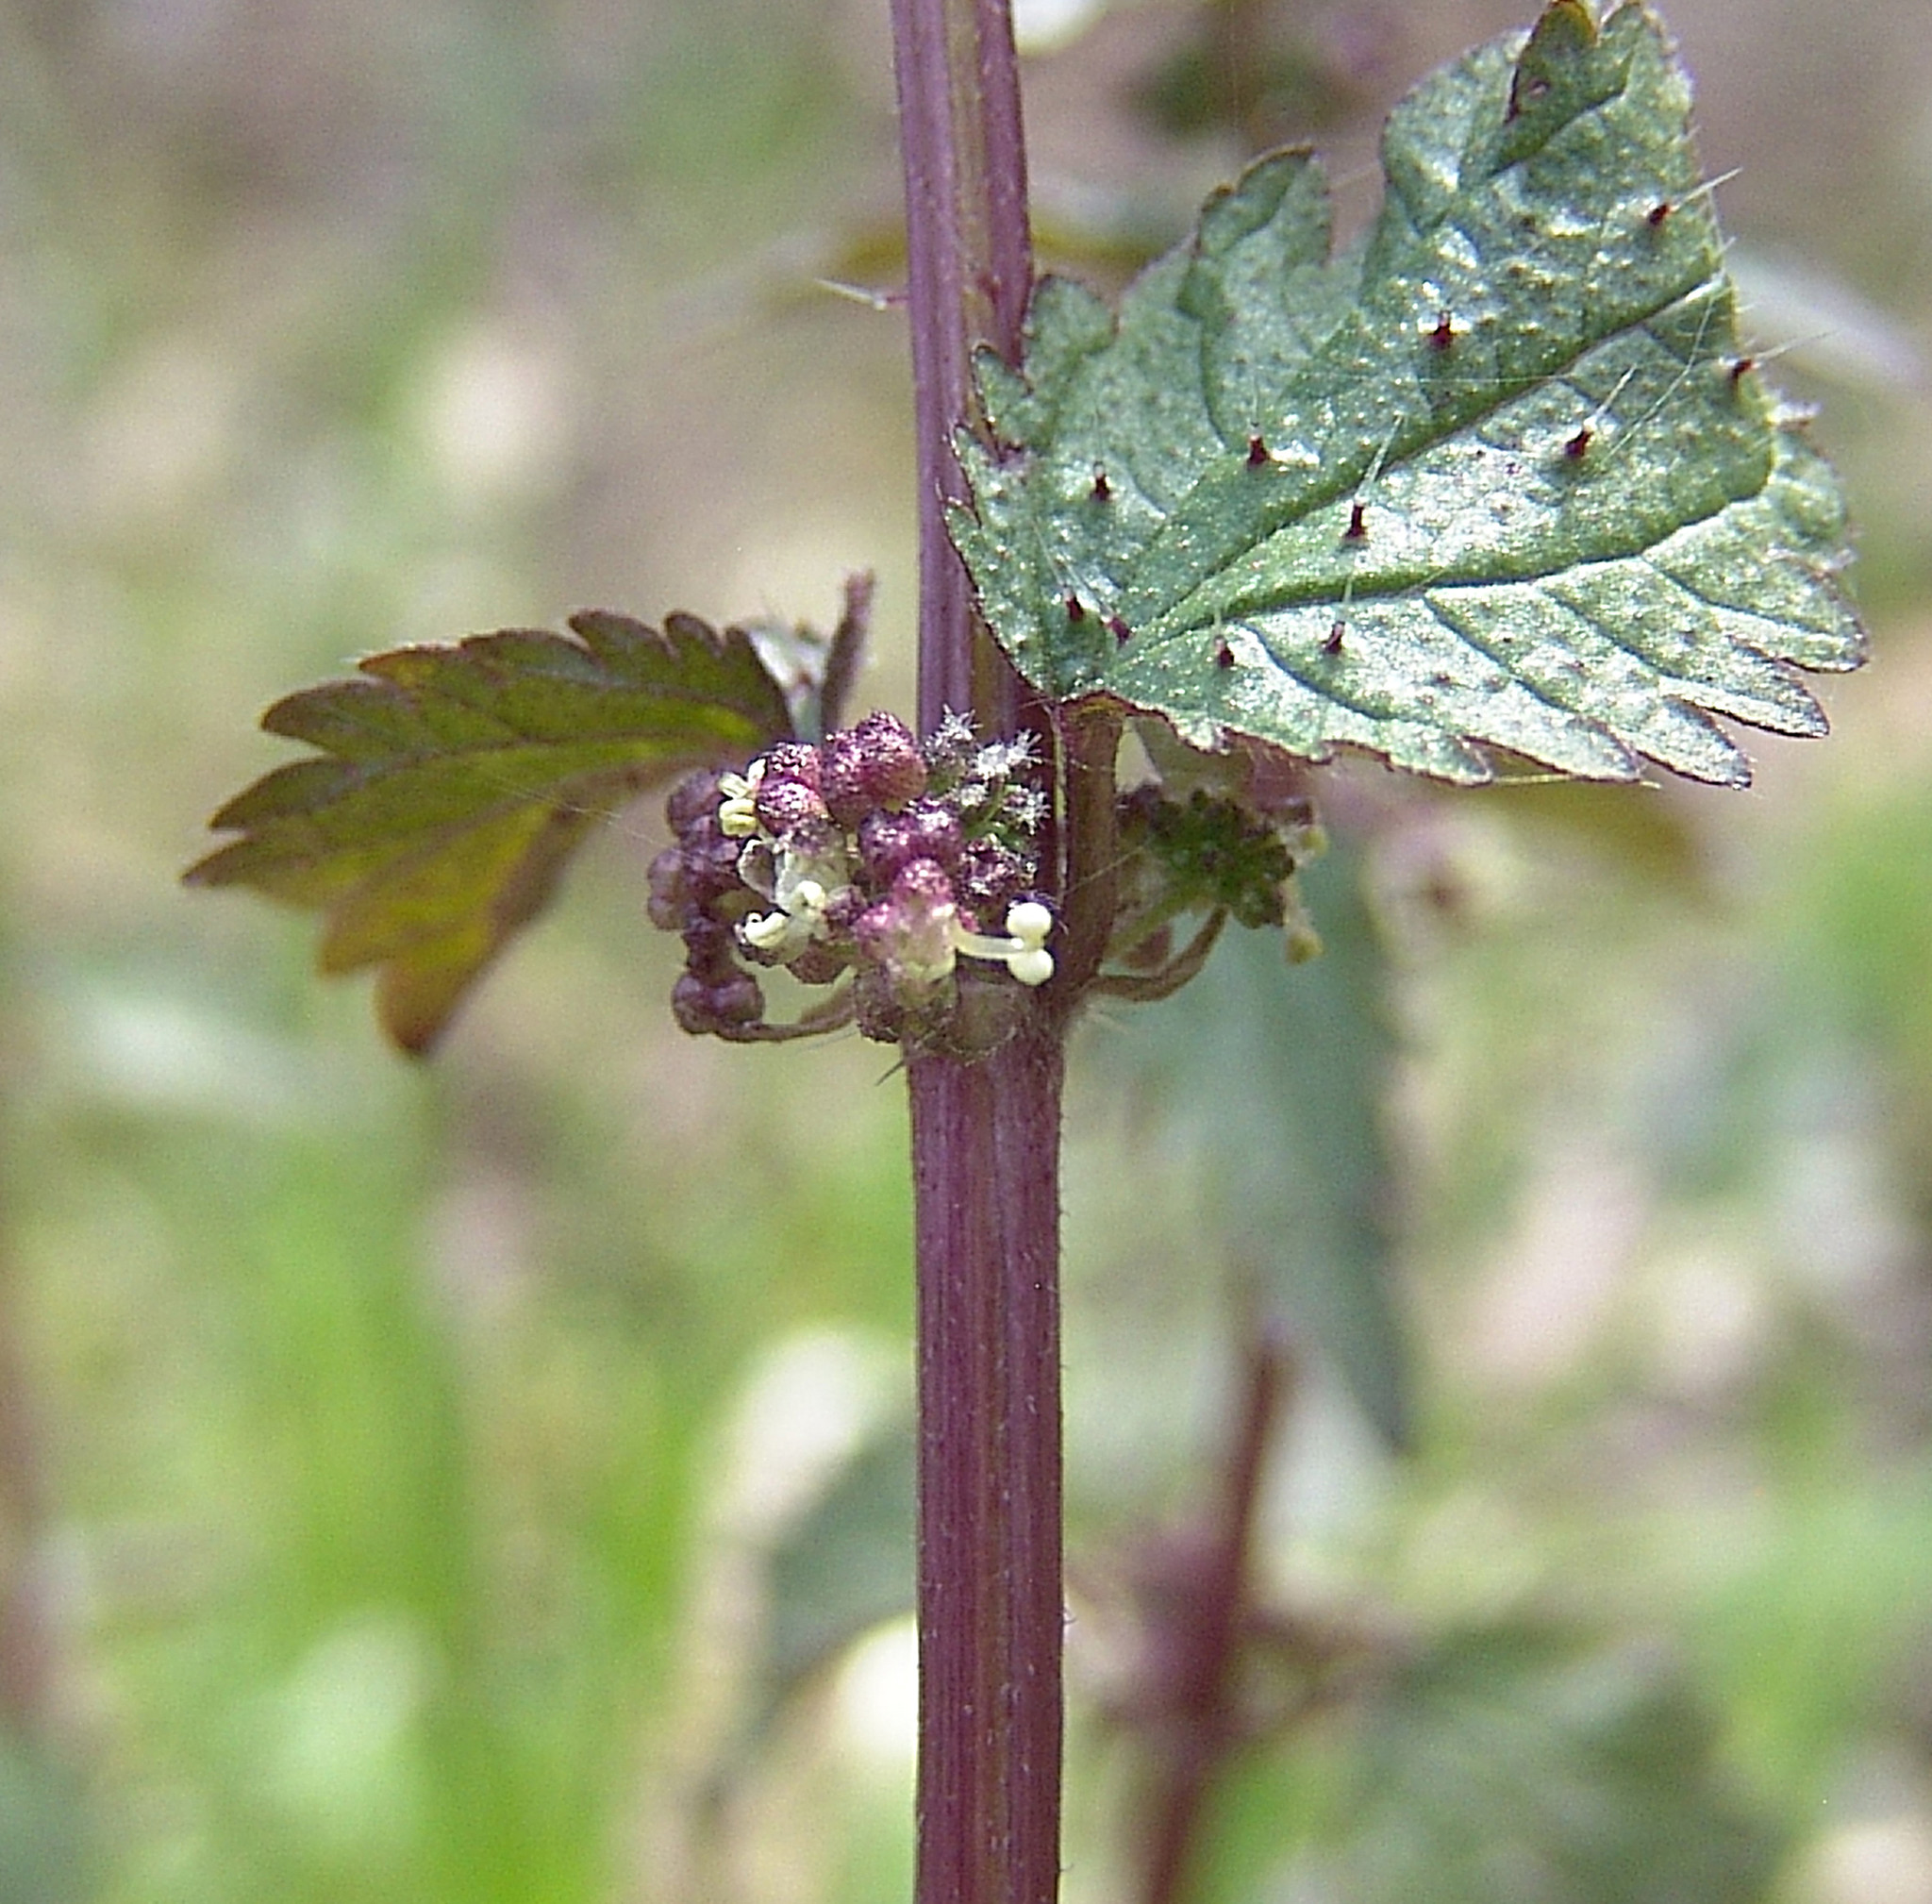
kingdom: Plantae
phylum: Tracheophyta
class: Magnoliopsida
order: Rosales
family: Urticaceae
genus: Urtica
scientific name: Urtica chamaedryoides
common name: Heart-leaf nettle
